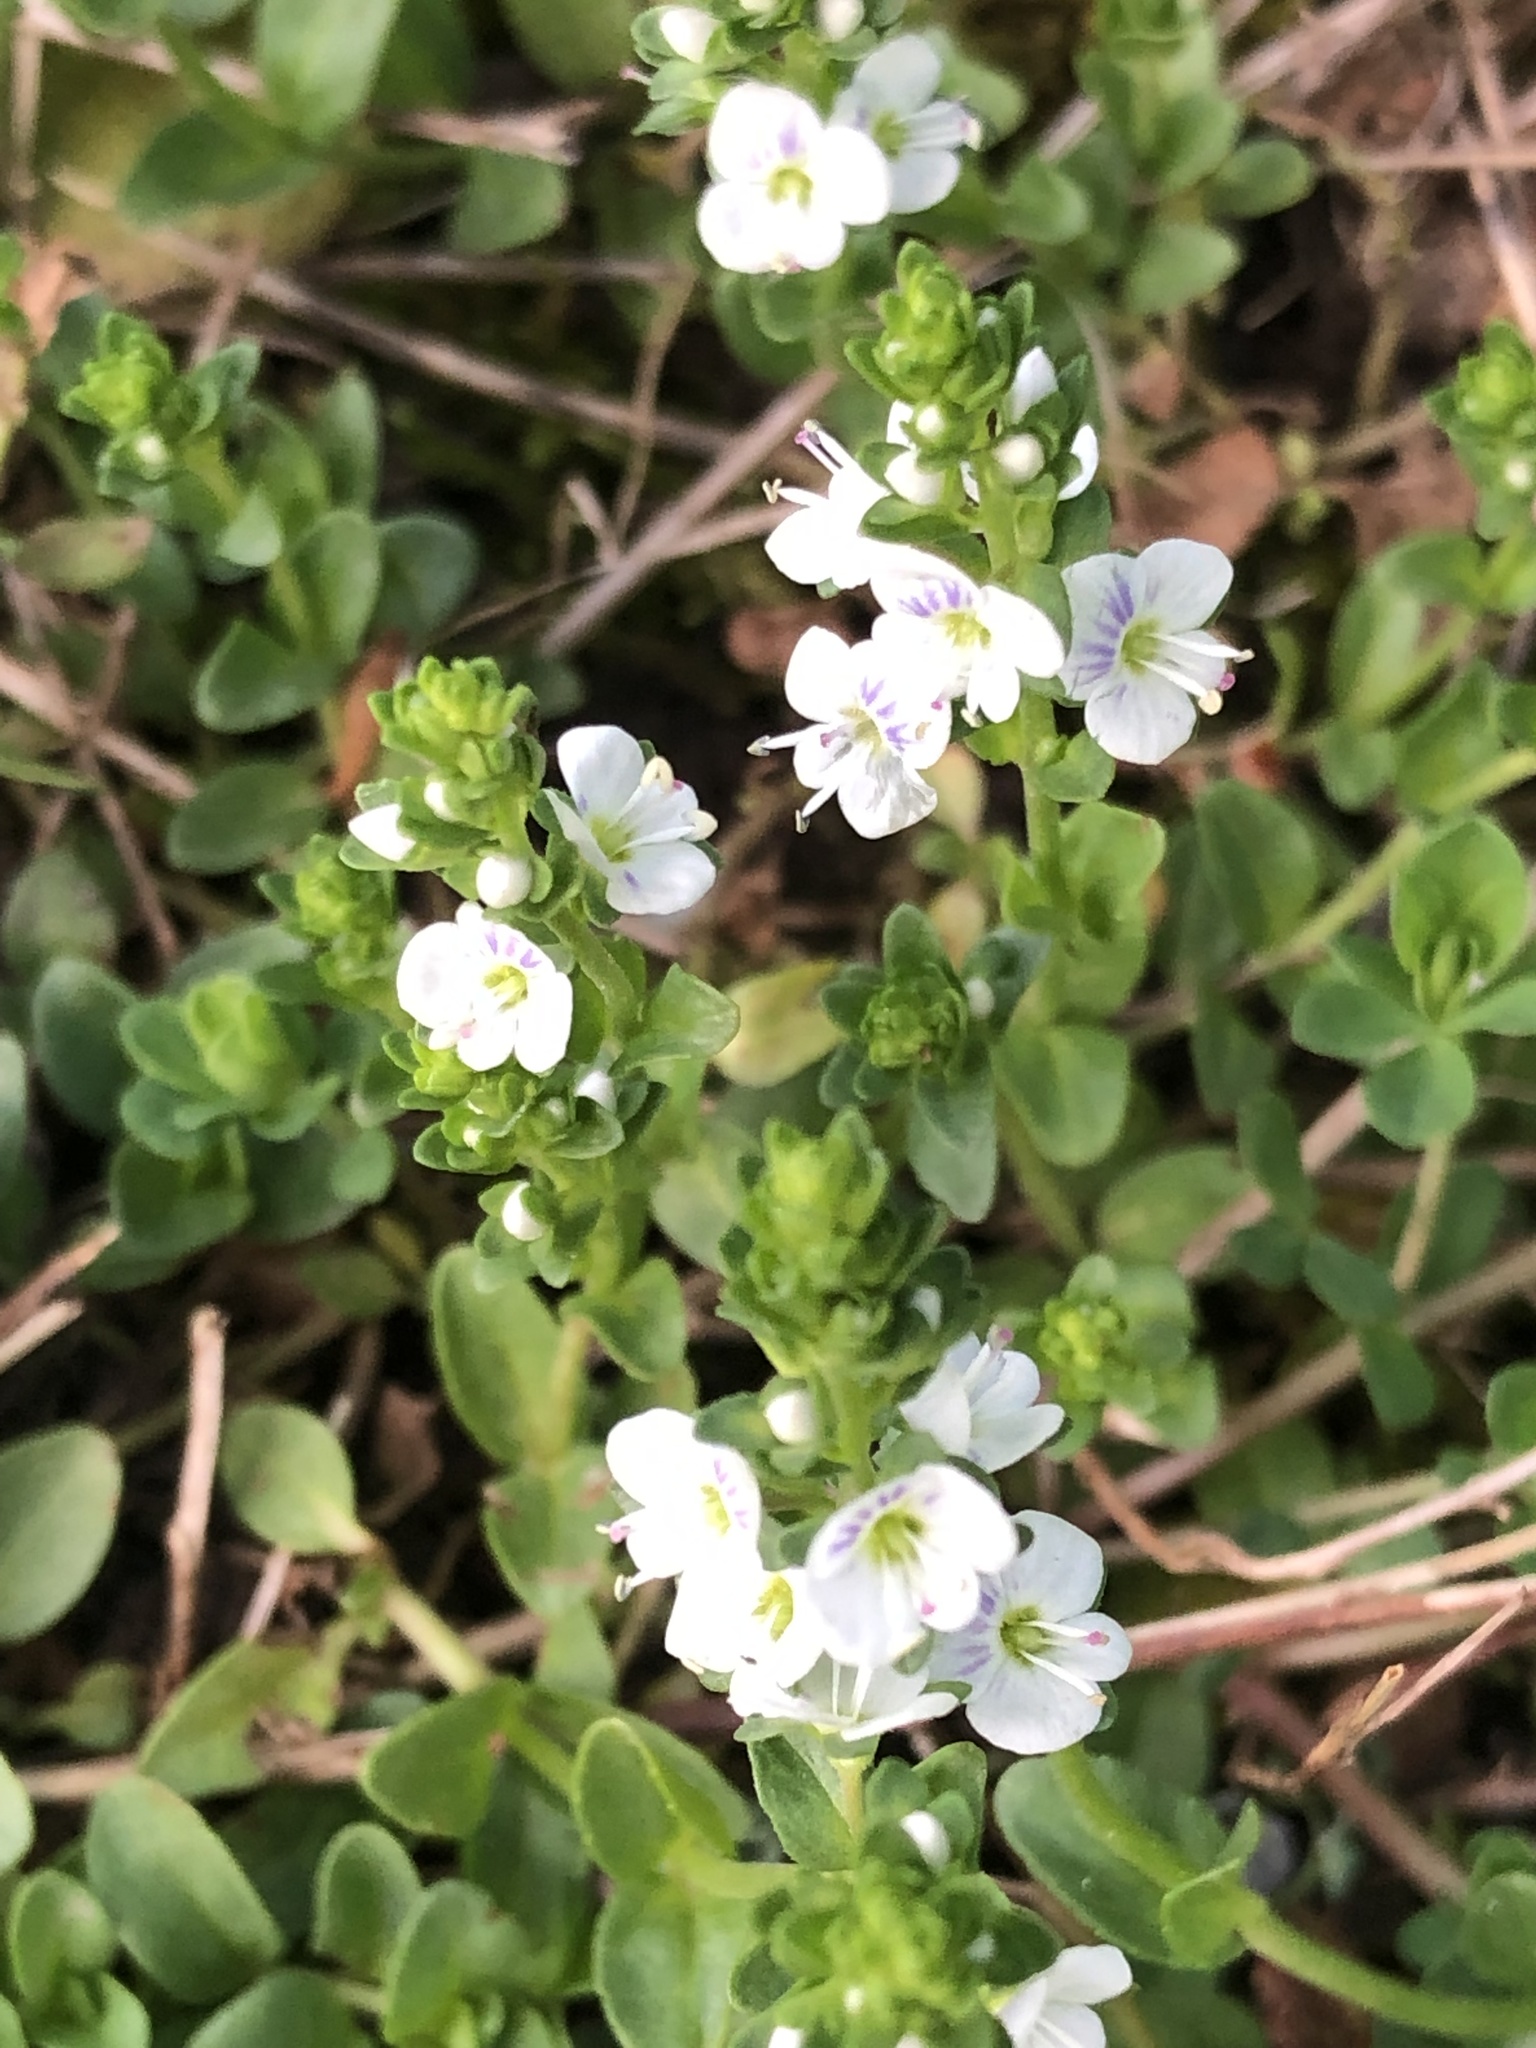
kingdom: Plantae
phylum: Tracheophyta
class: Magnoliopsida
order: Lamiales
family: Plantaginaceae
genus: Veronica
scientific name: Veronica serpyllifolia
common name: Thyme-leaved speedwell
